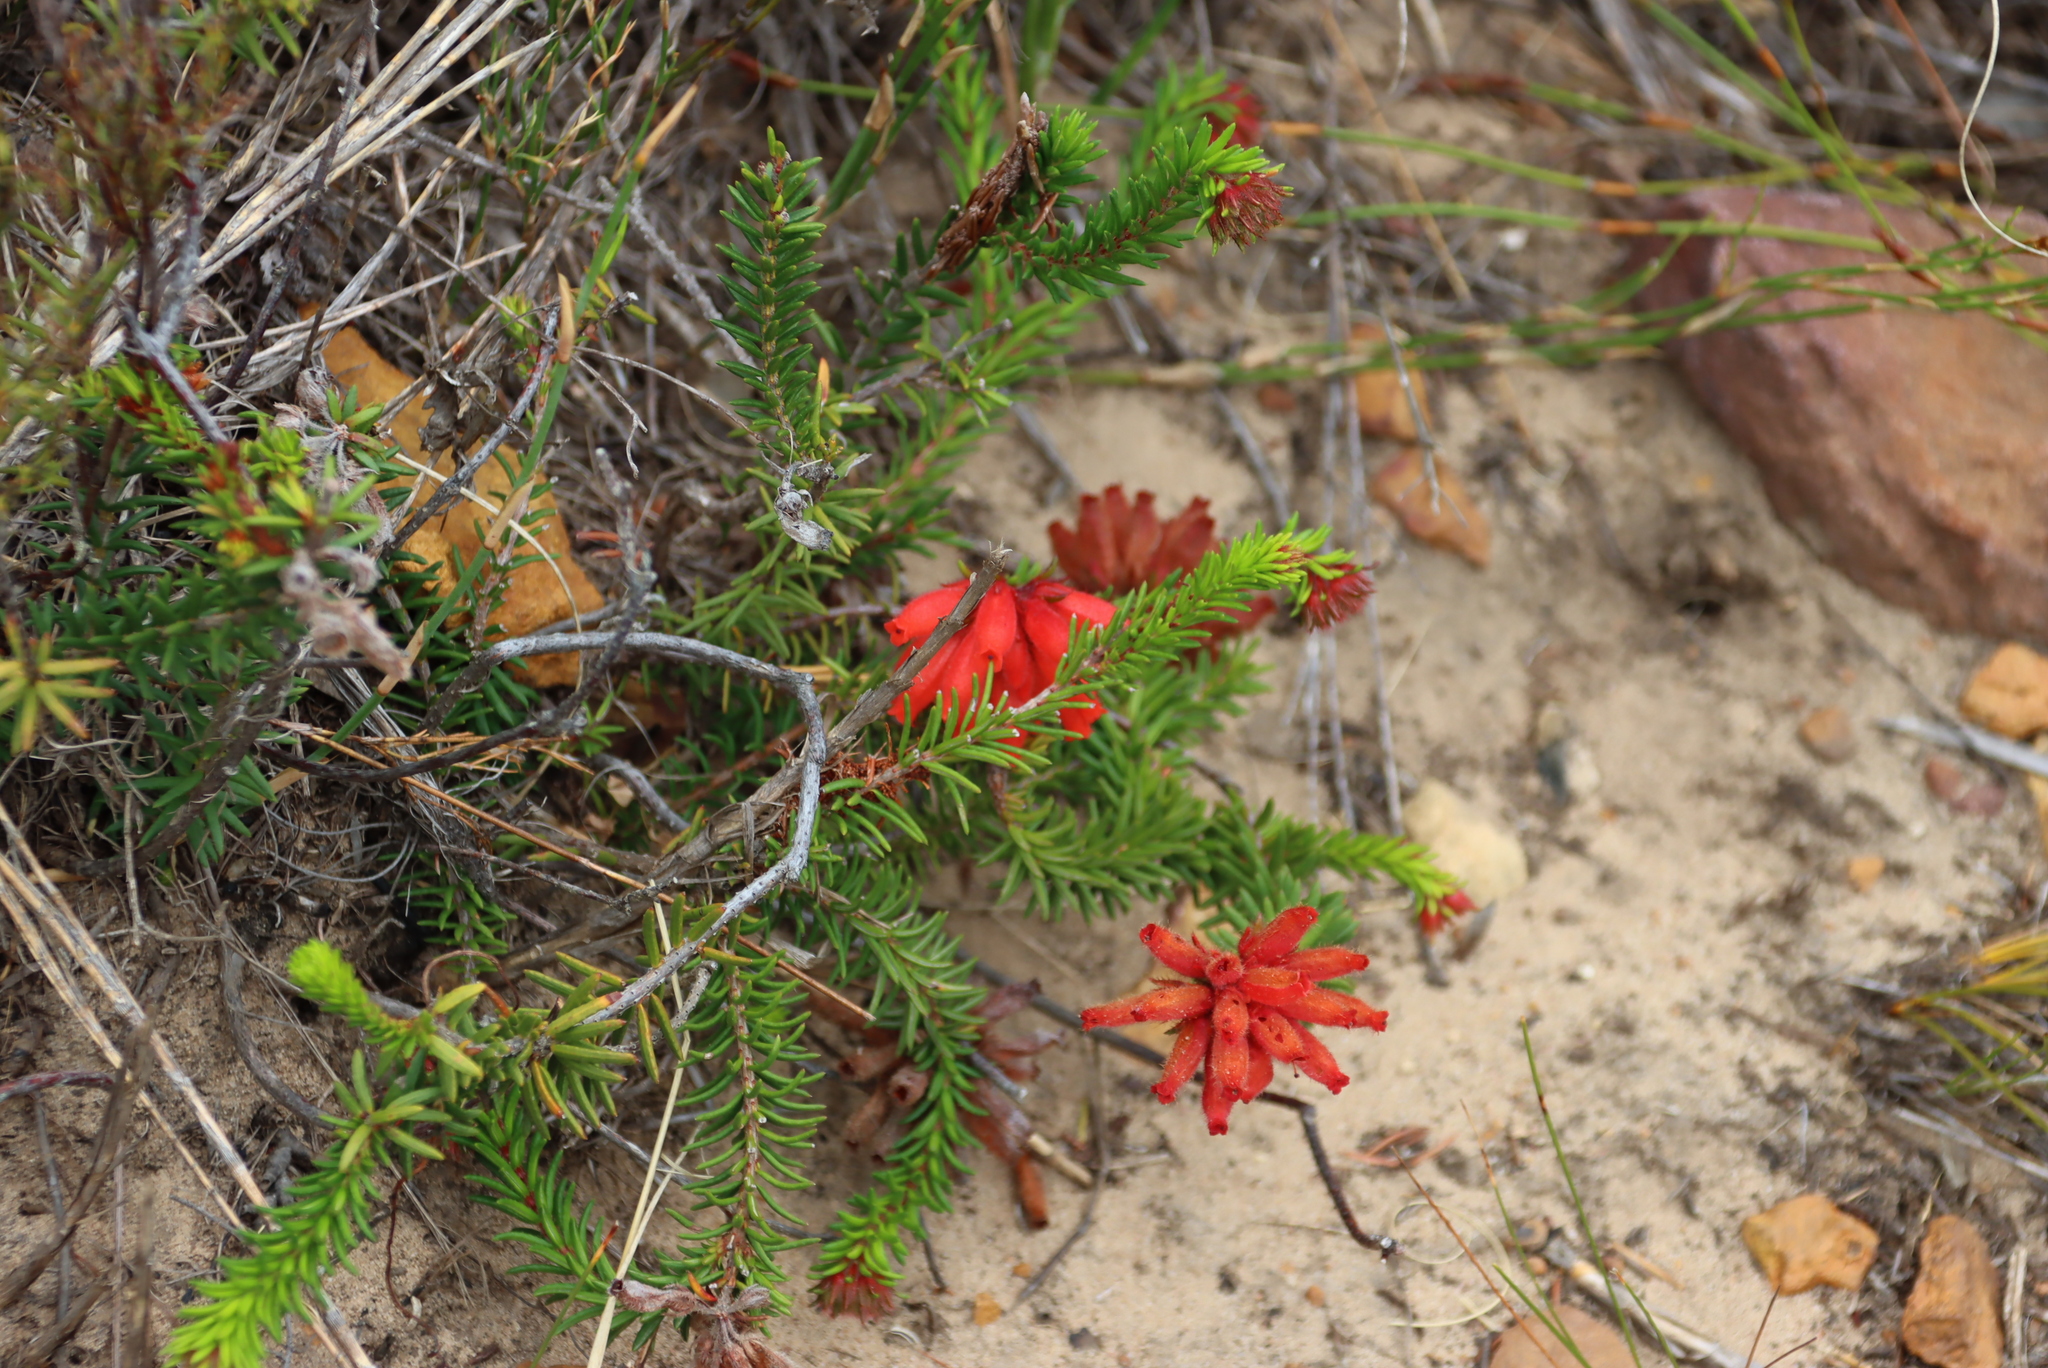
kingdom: Plantae
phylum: Tracheophyta
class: Magnoliopsida
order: Ericales
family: Ericaceae
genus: Erica
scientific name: Erica cerinthoides
